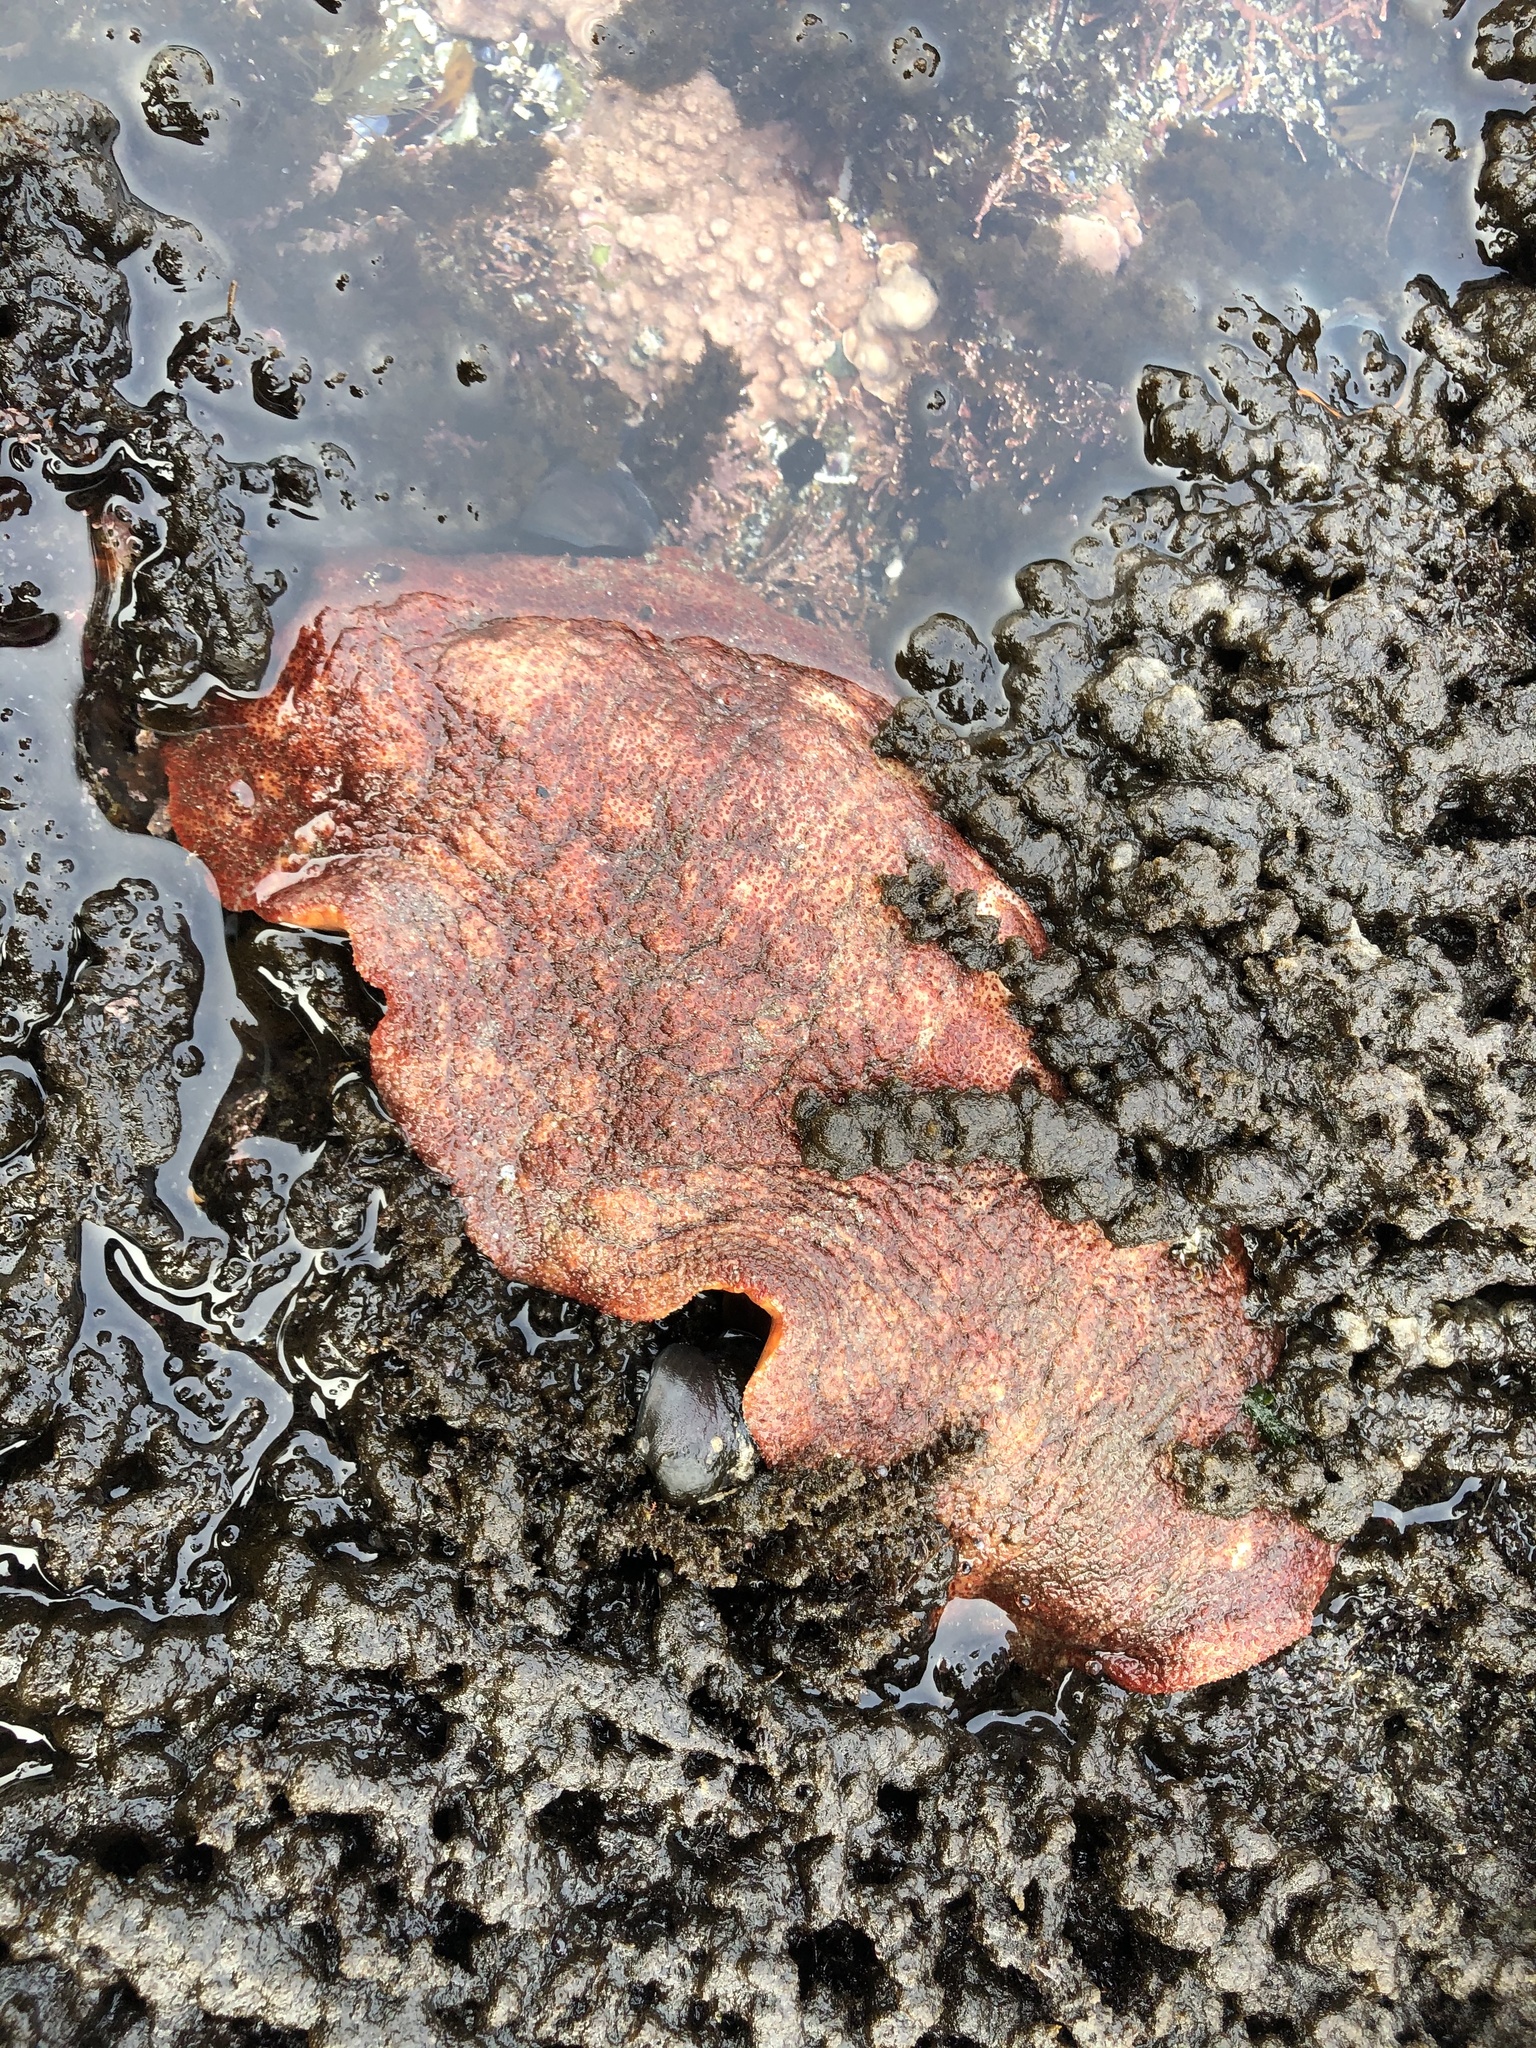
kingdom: Animalia
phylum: Mollusca
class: Polyplacophora
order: Chitonida
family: Acanthochitonidae
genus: Cryptochiton
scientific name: Cryptochiton stelleri
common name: Giant pacific chiton
